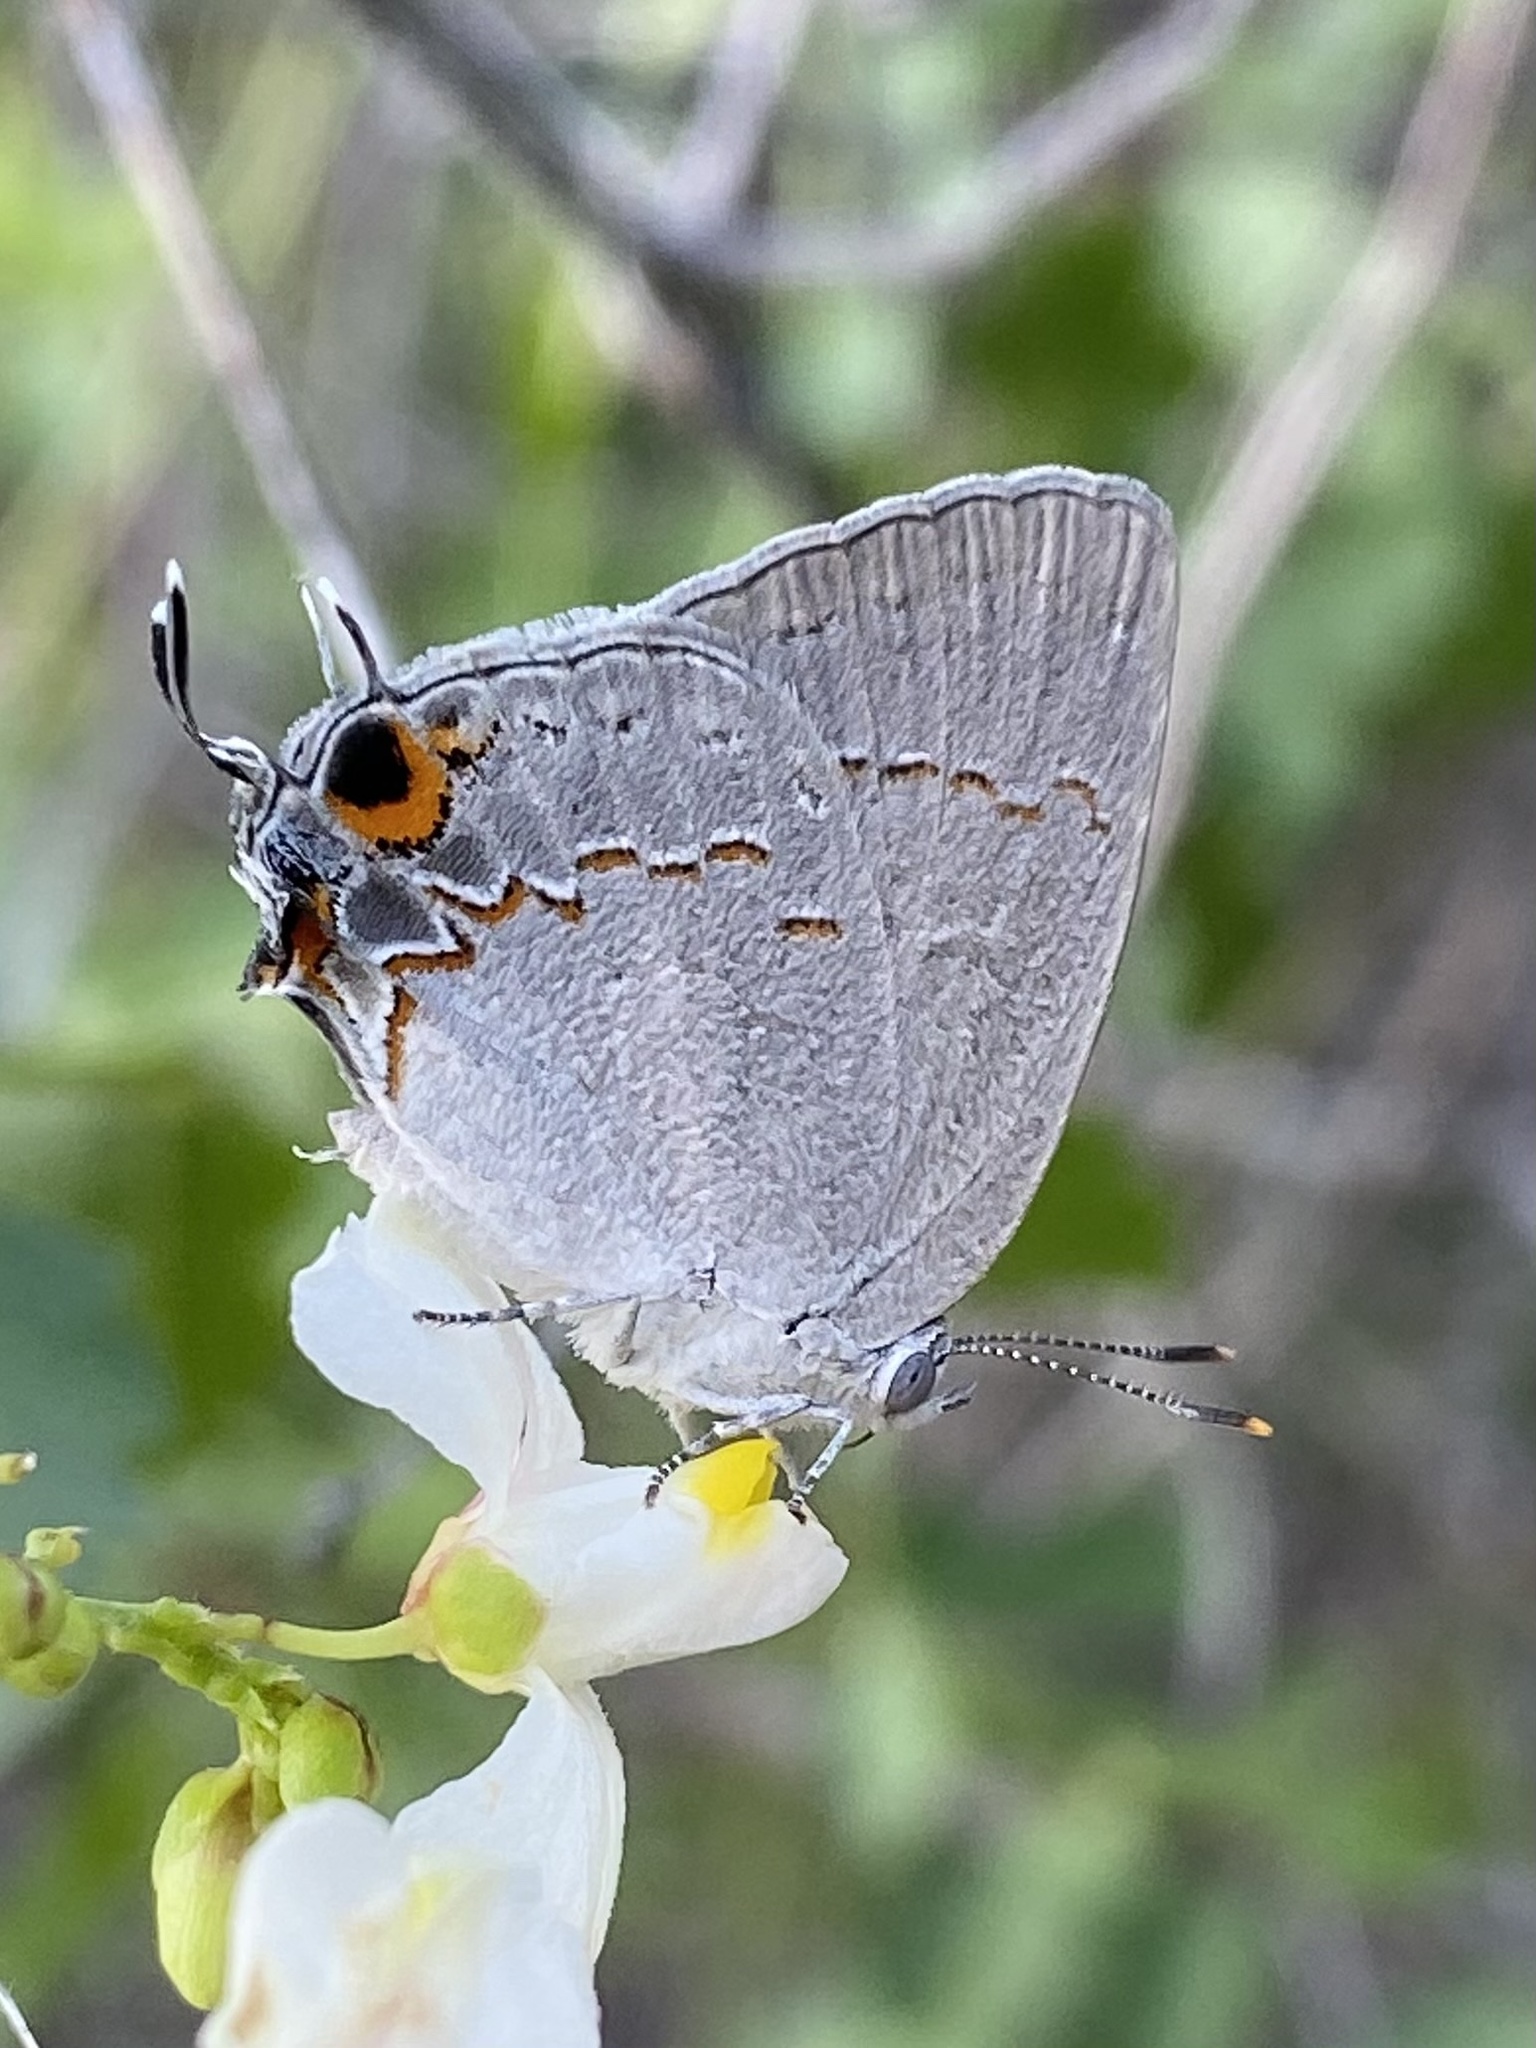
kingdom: Animalia
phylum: Arthropoda
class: Insecta
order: Lepidoptera
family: Lycaenidae
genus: Hypostrymon
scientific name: Hypostrymon critola
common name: Sonoran hairstreak
